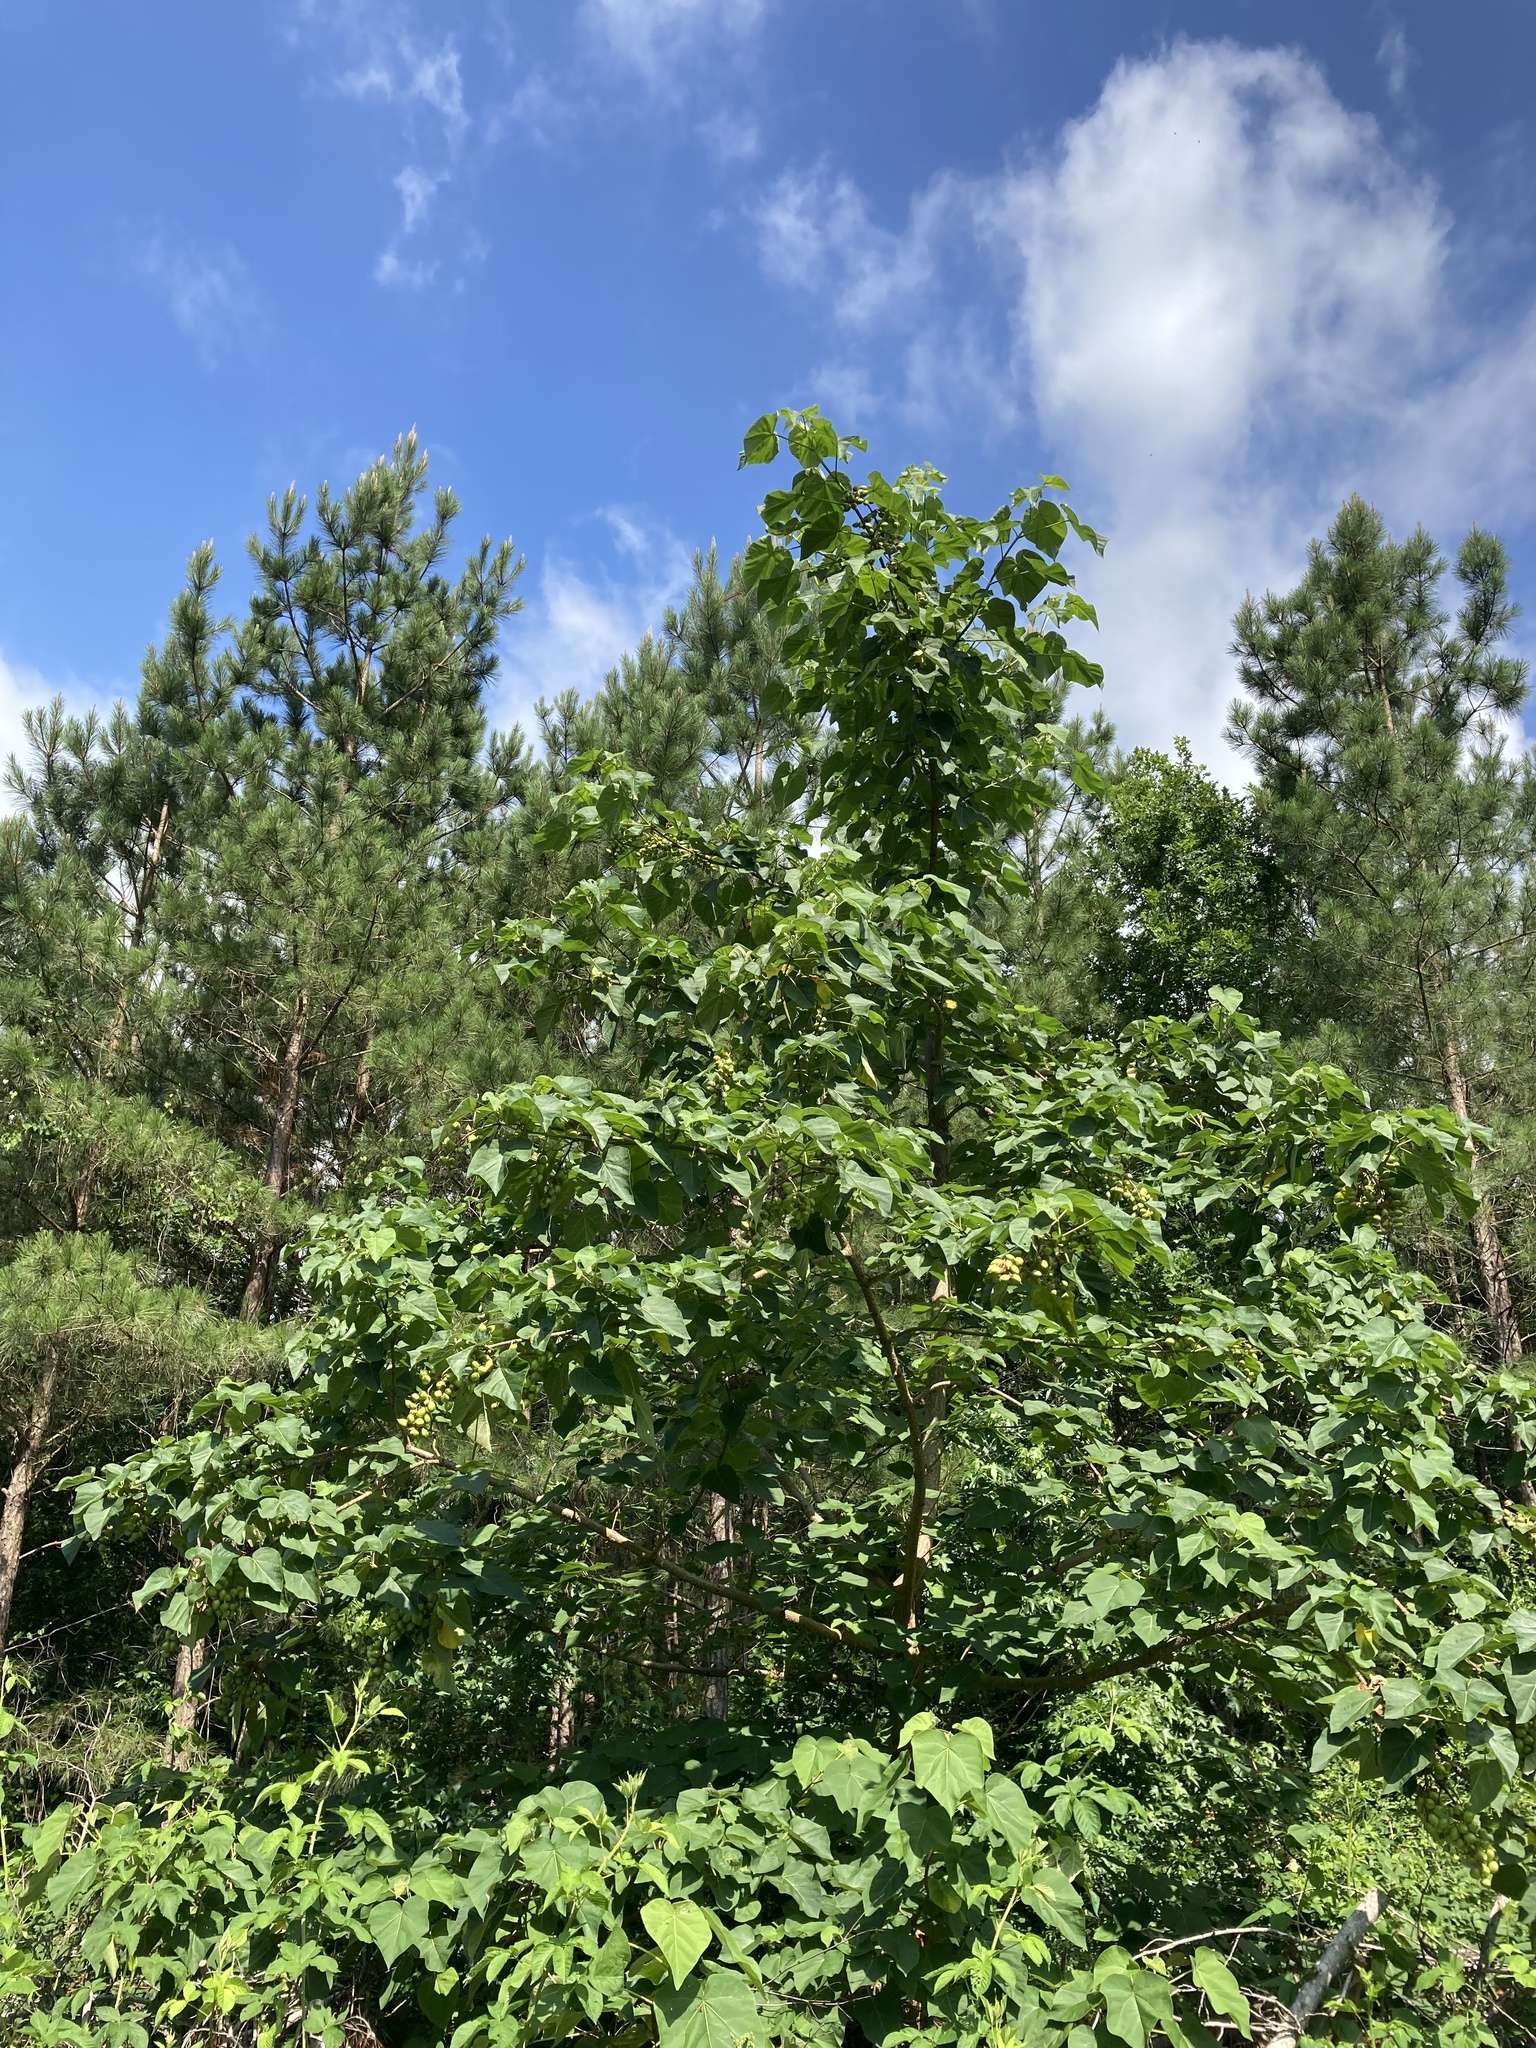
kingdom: Plantae
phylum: Tracheophyta
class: Magnoliopsida
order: Lamiales
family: Paulowniaceae
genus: Paulownia
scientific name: Paulownia tomentosa
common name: Foxglove-tree
